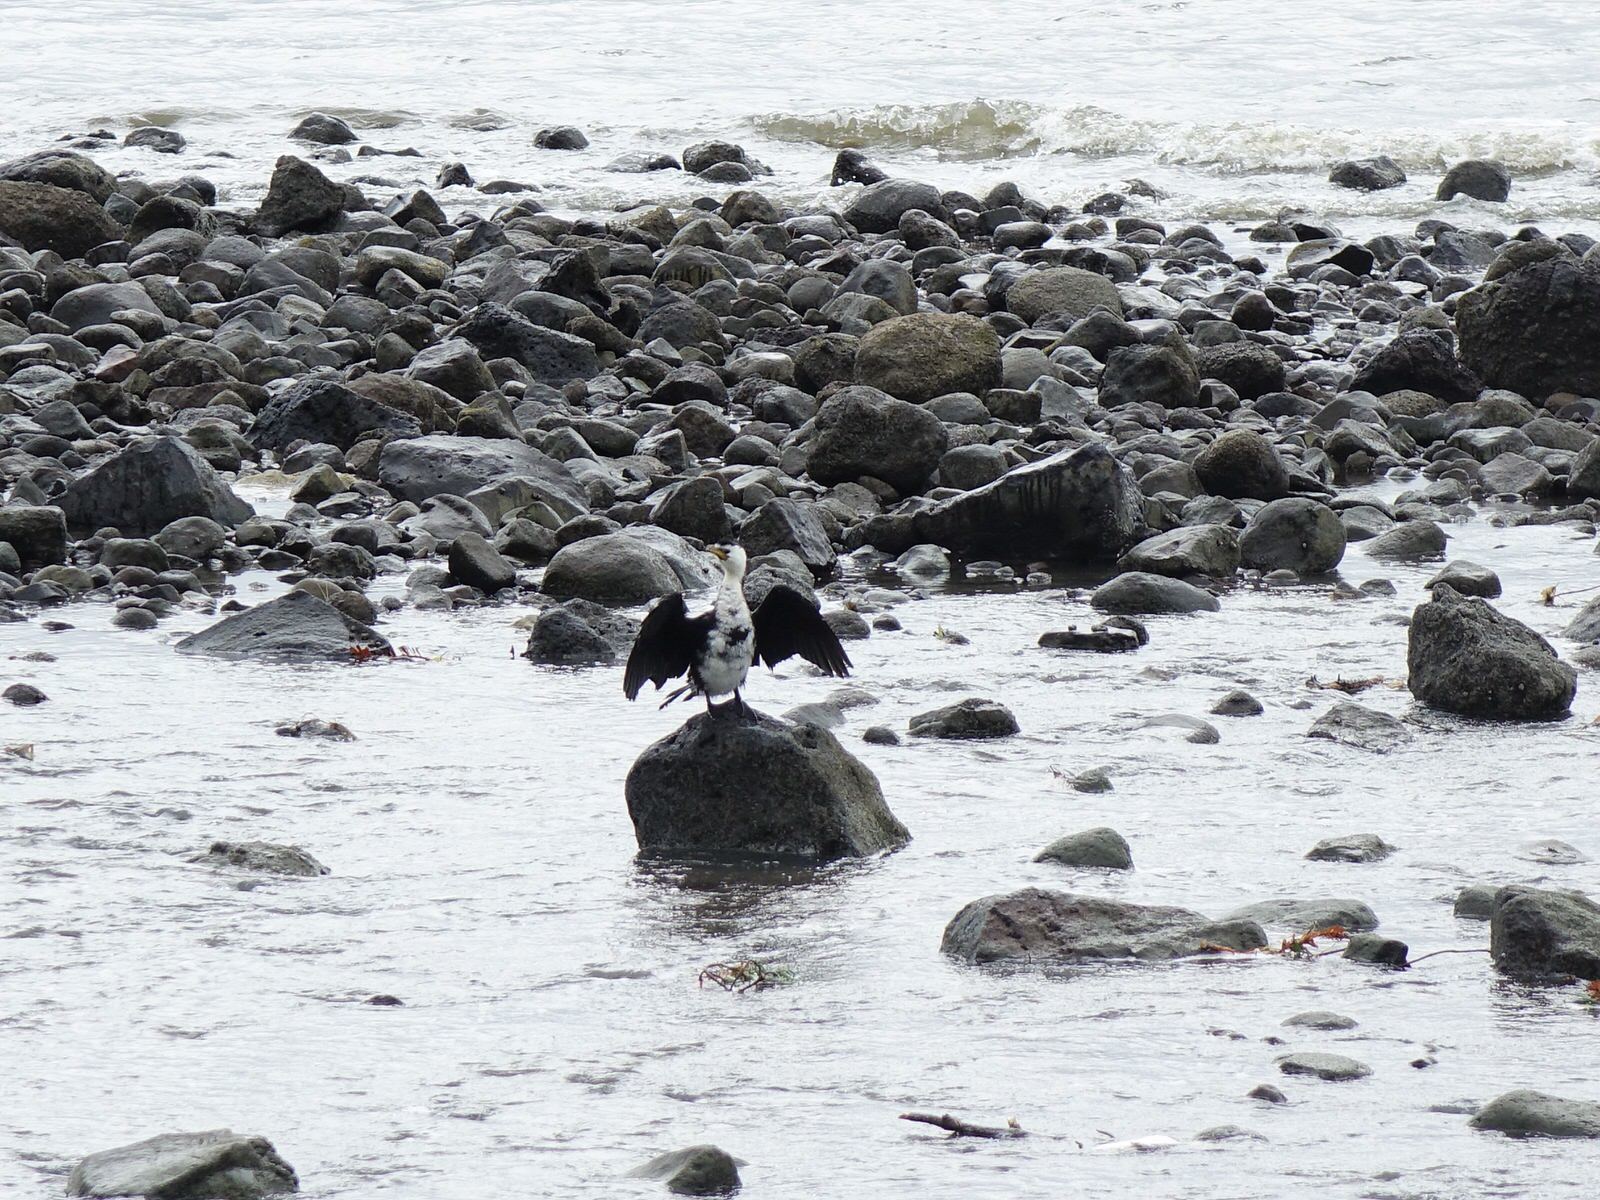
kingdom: Animalia
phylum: Chordata
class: Aves
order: Suliformes
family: Phalacrocoracidae
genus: Microcarbo
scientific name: Microcarbo melanoleucos
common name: Little pied cormorant
